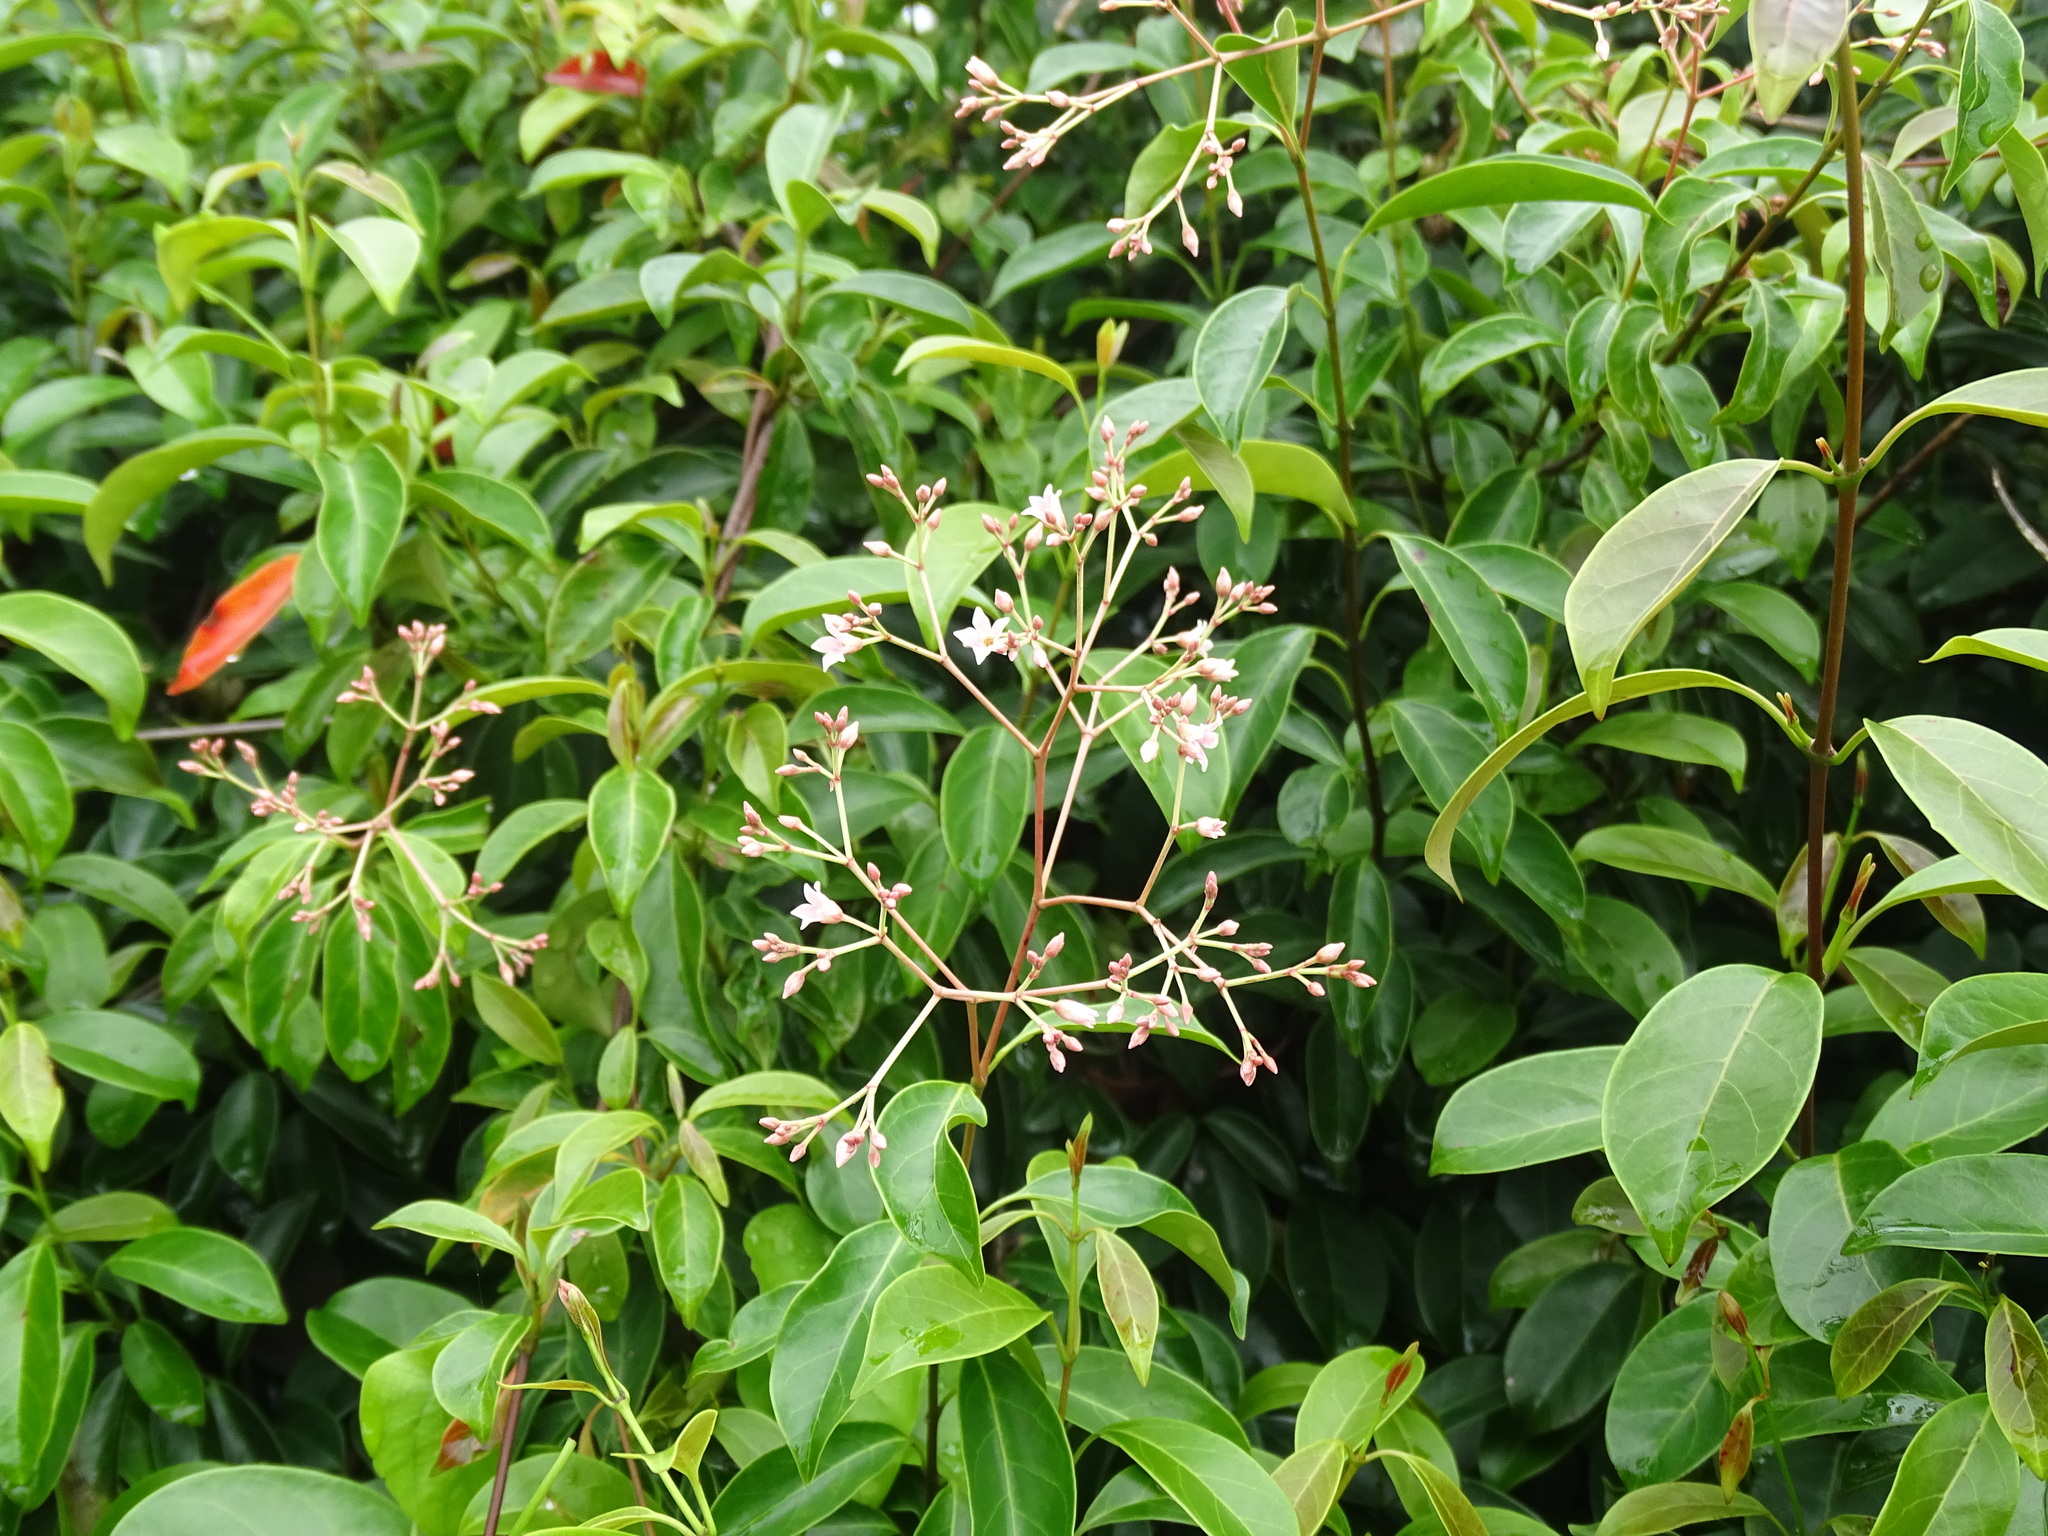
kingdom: Plantae
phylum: Tracheophyta
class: Magnoliopsida
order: Gentianales
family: Apocynaceae
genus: Urceola
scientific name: Urceola rosea
